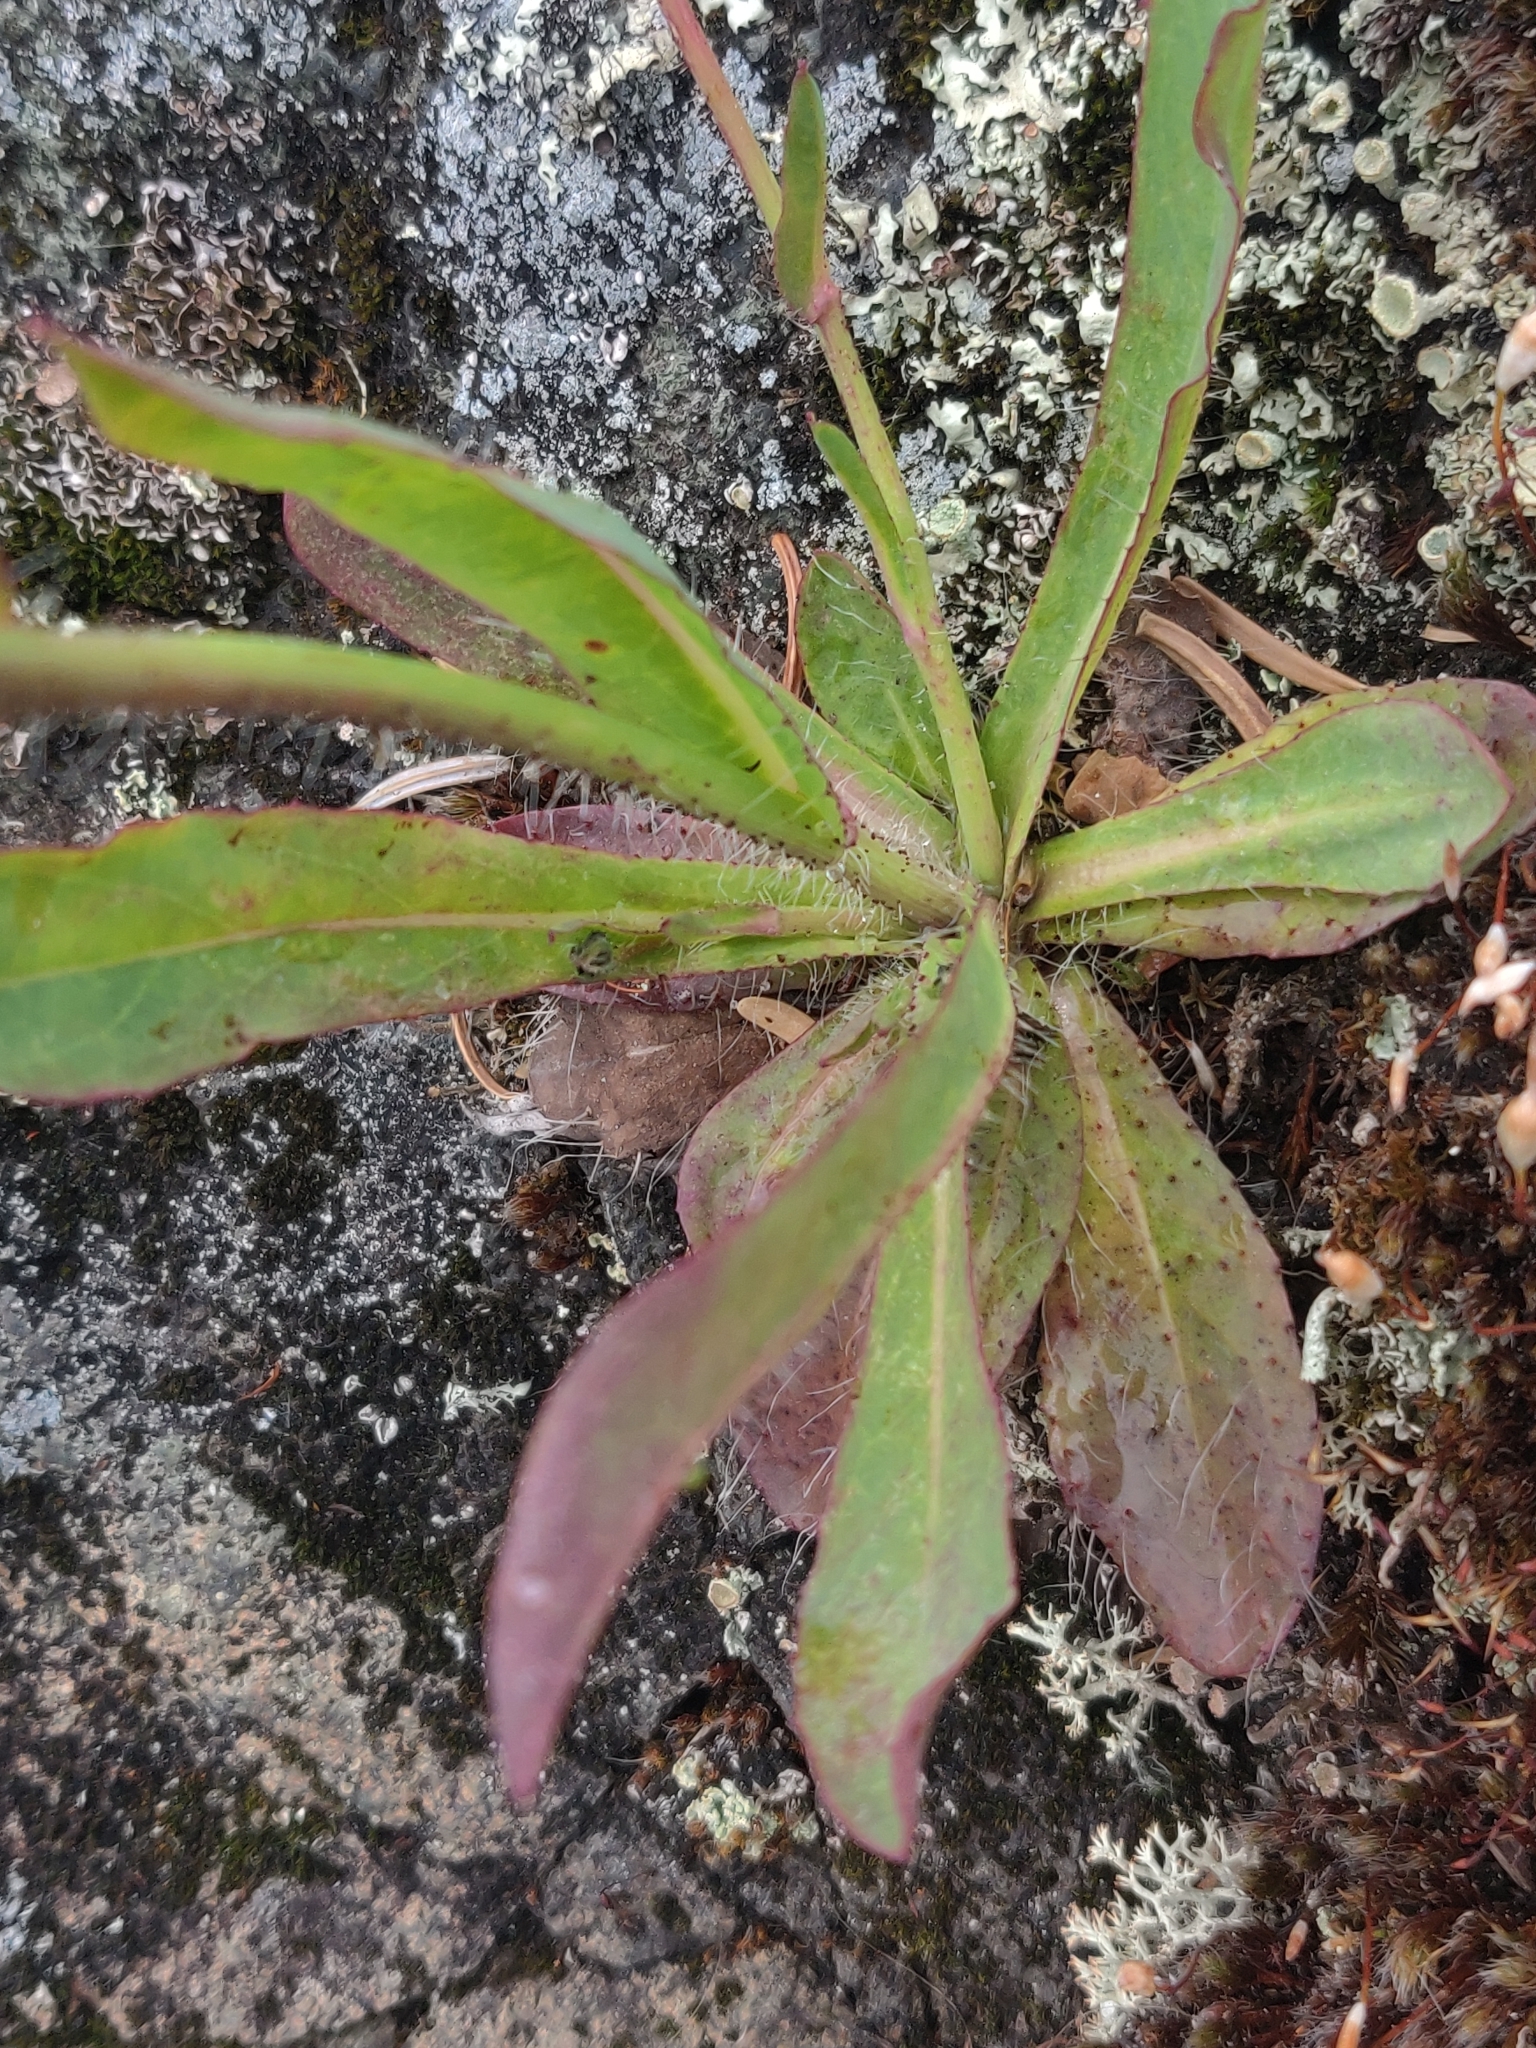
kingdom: Plantae
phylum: Tracheophyta
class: Magnoliopsida
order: Asterales
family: Asteraceae
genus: Pilosella
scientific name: Pilosella caespitosa
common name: Yellow fox-and-cubs
